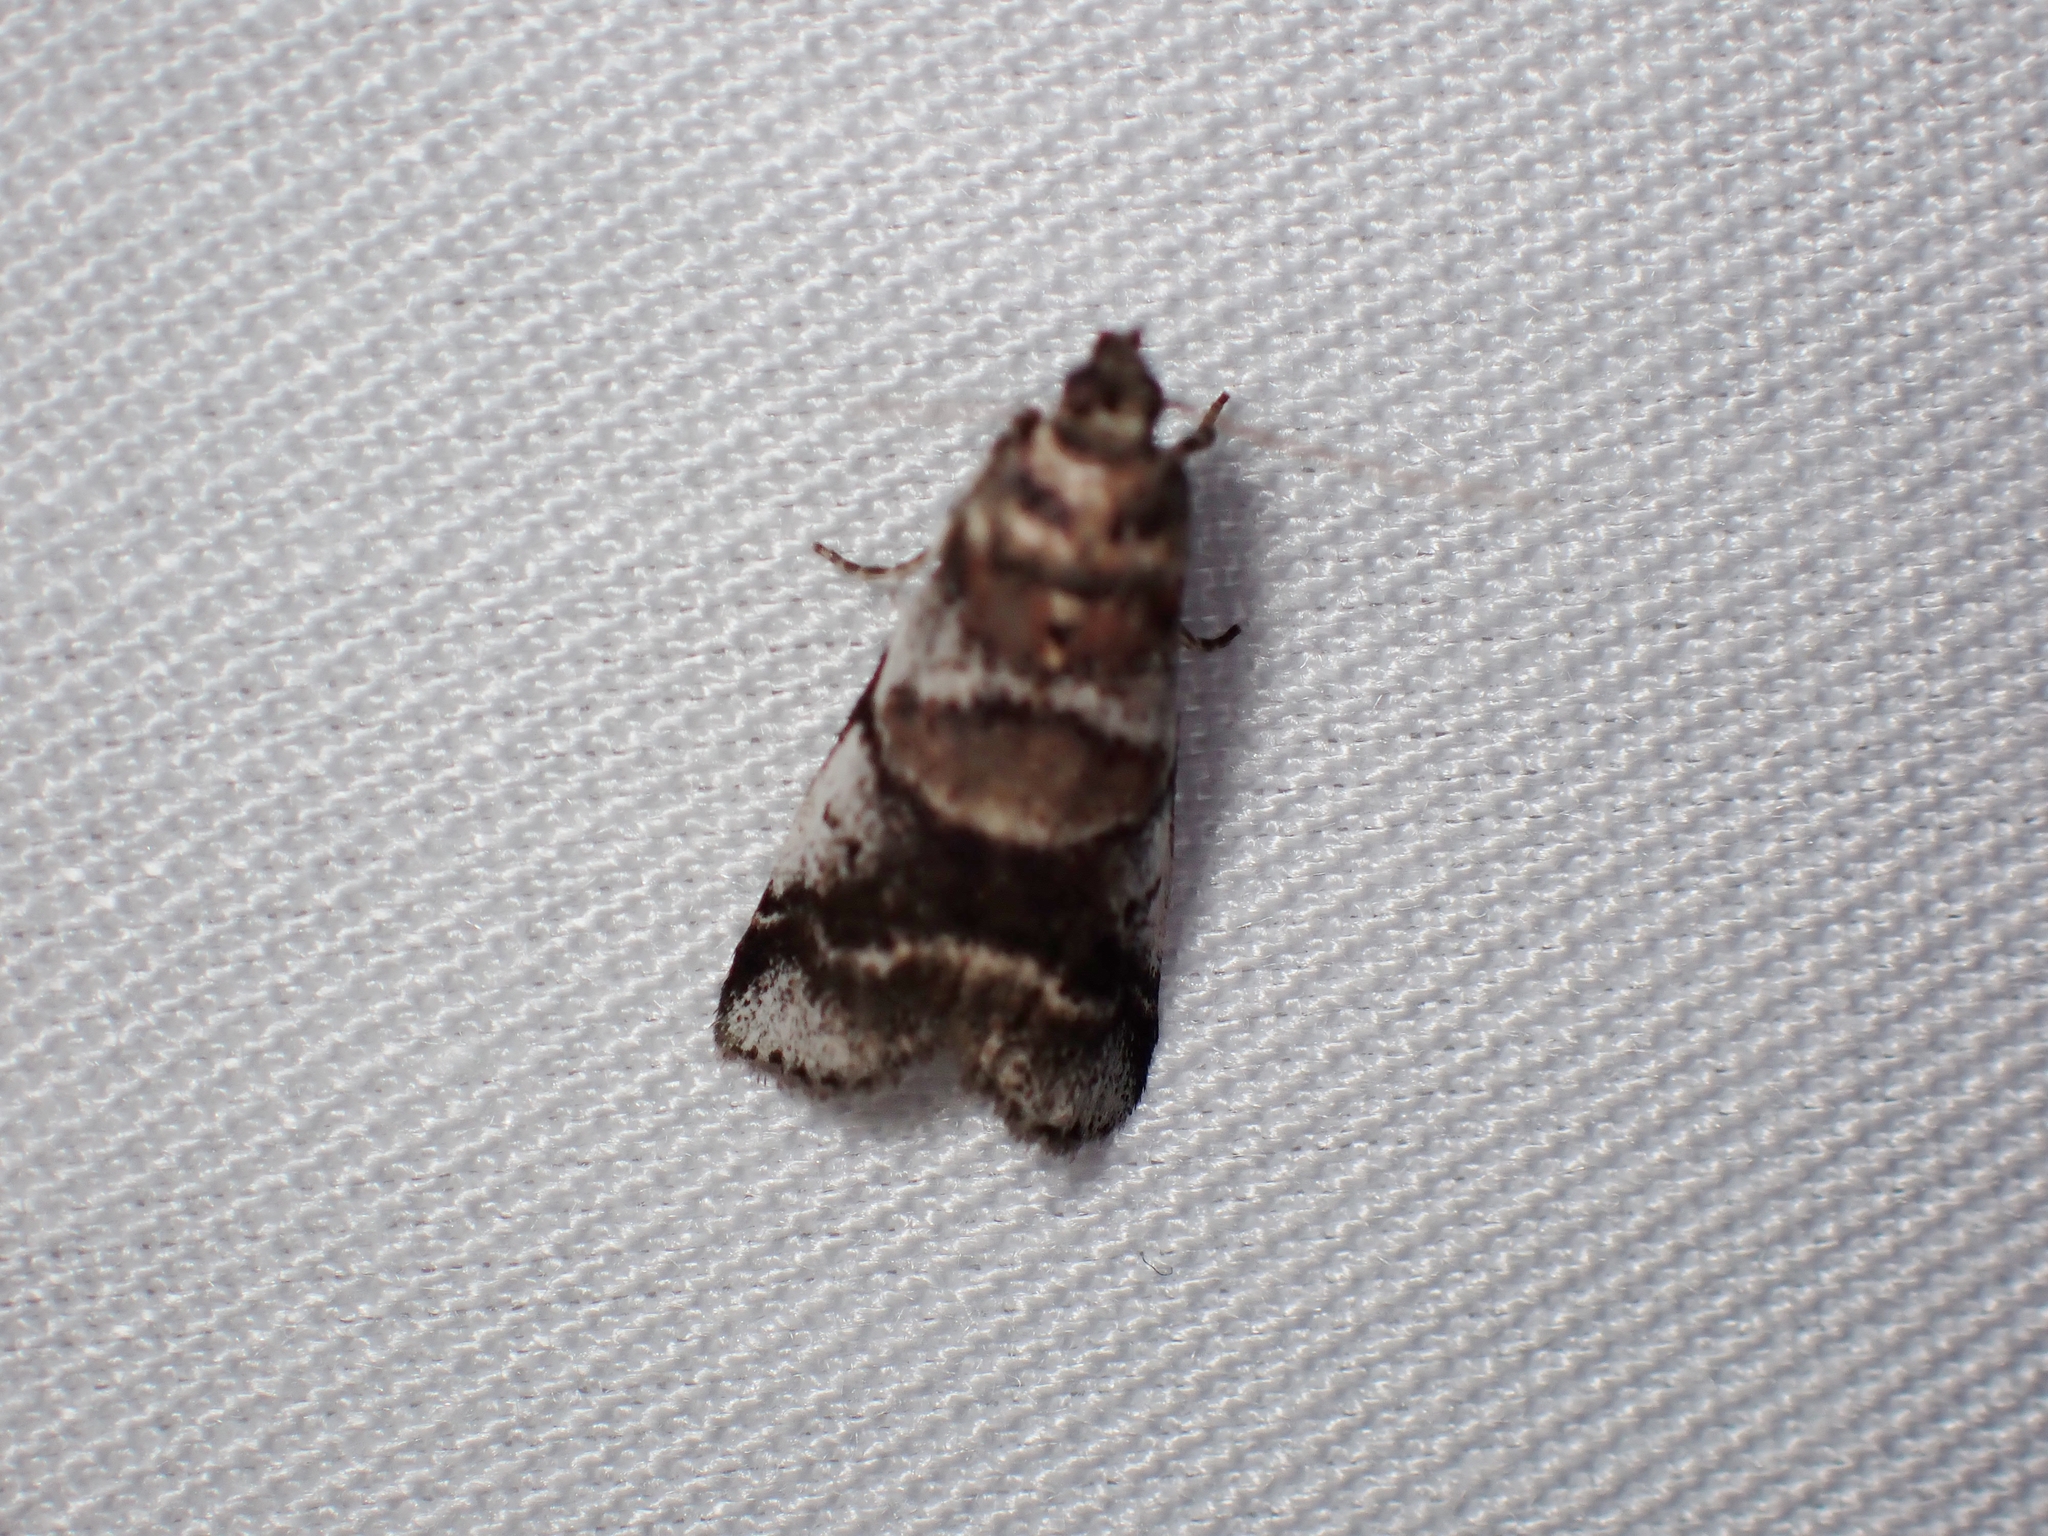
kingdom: Animalia
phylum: Arthropoda
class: Insecta
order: Lepidoptera
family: Pyralidae
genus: Acrobasis
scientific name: Acrobasis indigenella
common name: Leaf crumpler moth
